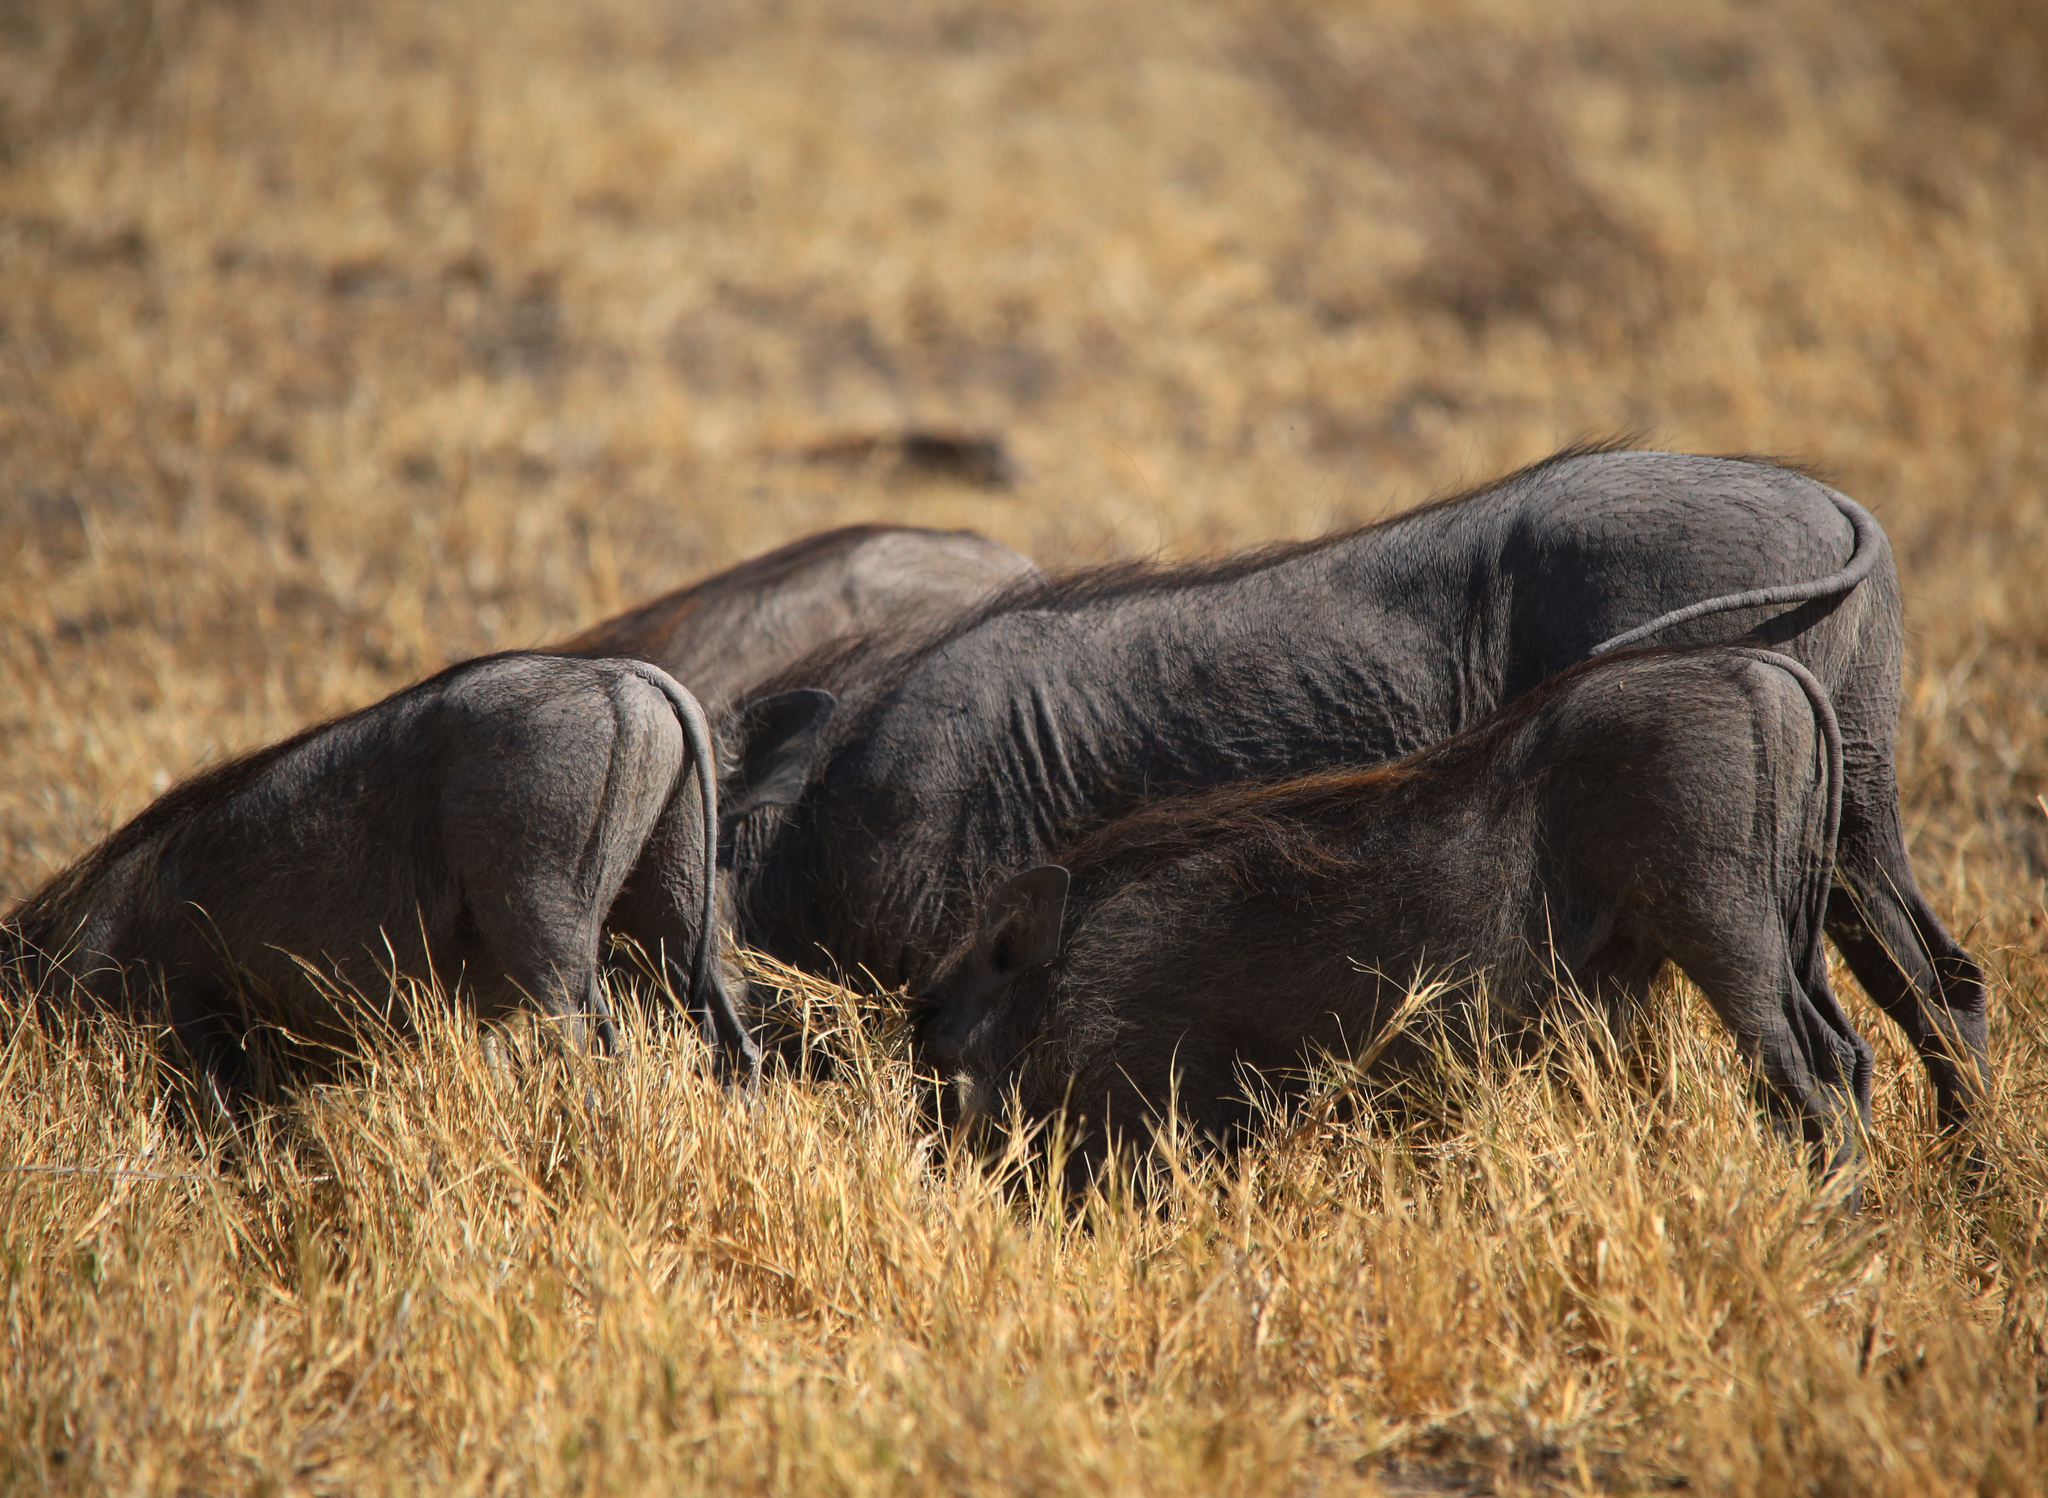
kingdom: Animalia
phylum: Chordata
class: Mammalia
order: Artiodactyla
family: Suidae
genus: Phacochoerus
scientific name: Phacochoerus africanus
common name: Common warthog
